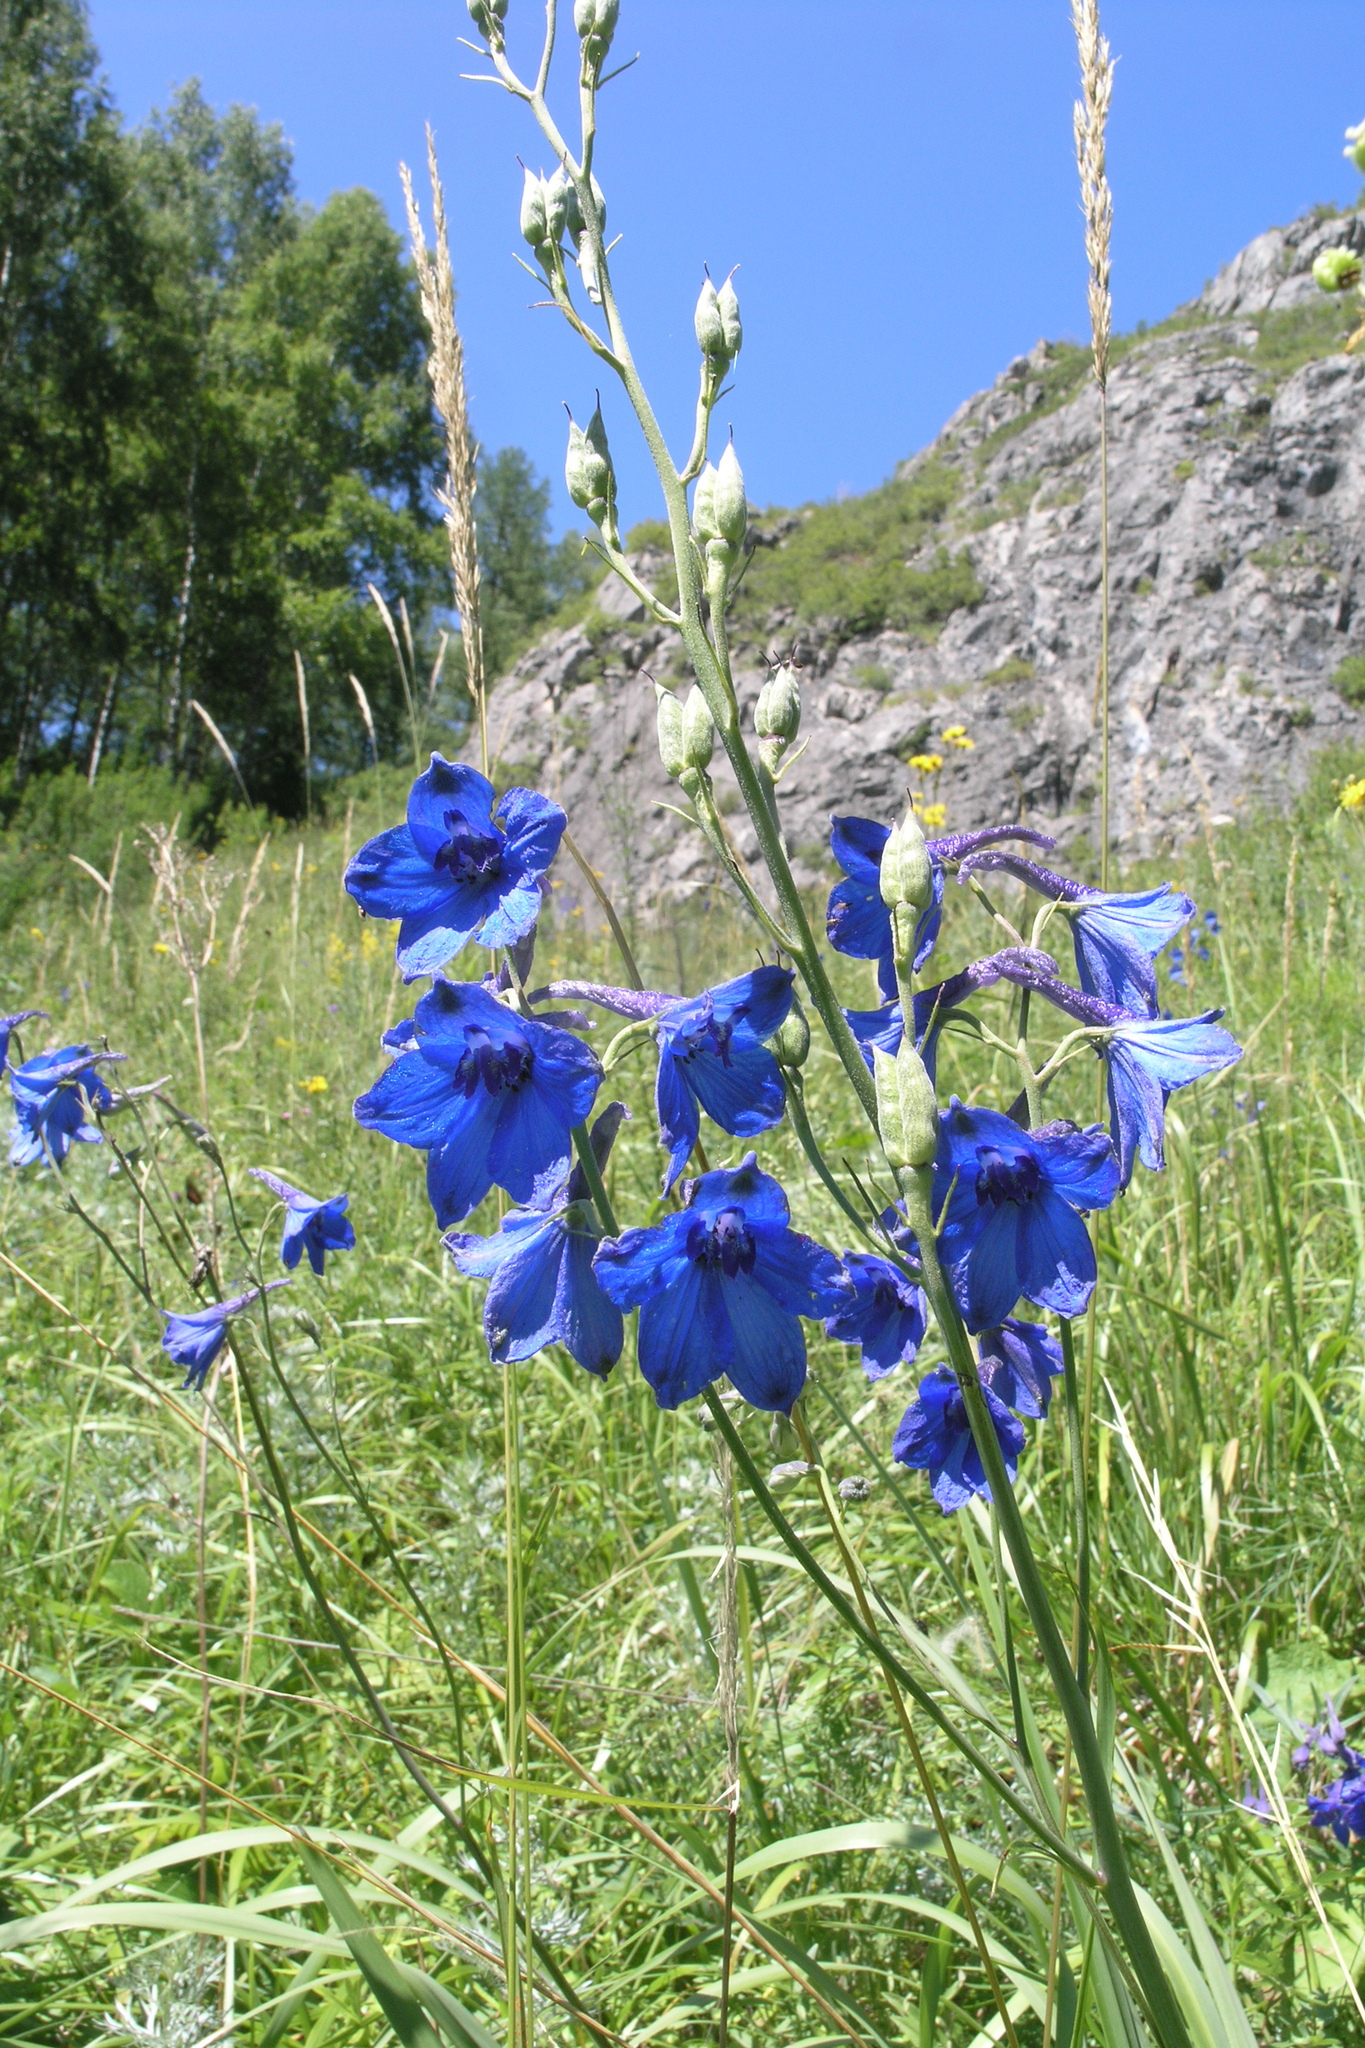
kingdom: Plantae
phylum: Tracheophyta
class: Magnoliopsida
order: Ranunculales
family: Ranunculaceae
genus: Delphinium
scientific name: Delphinium laxiflorum
